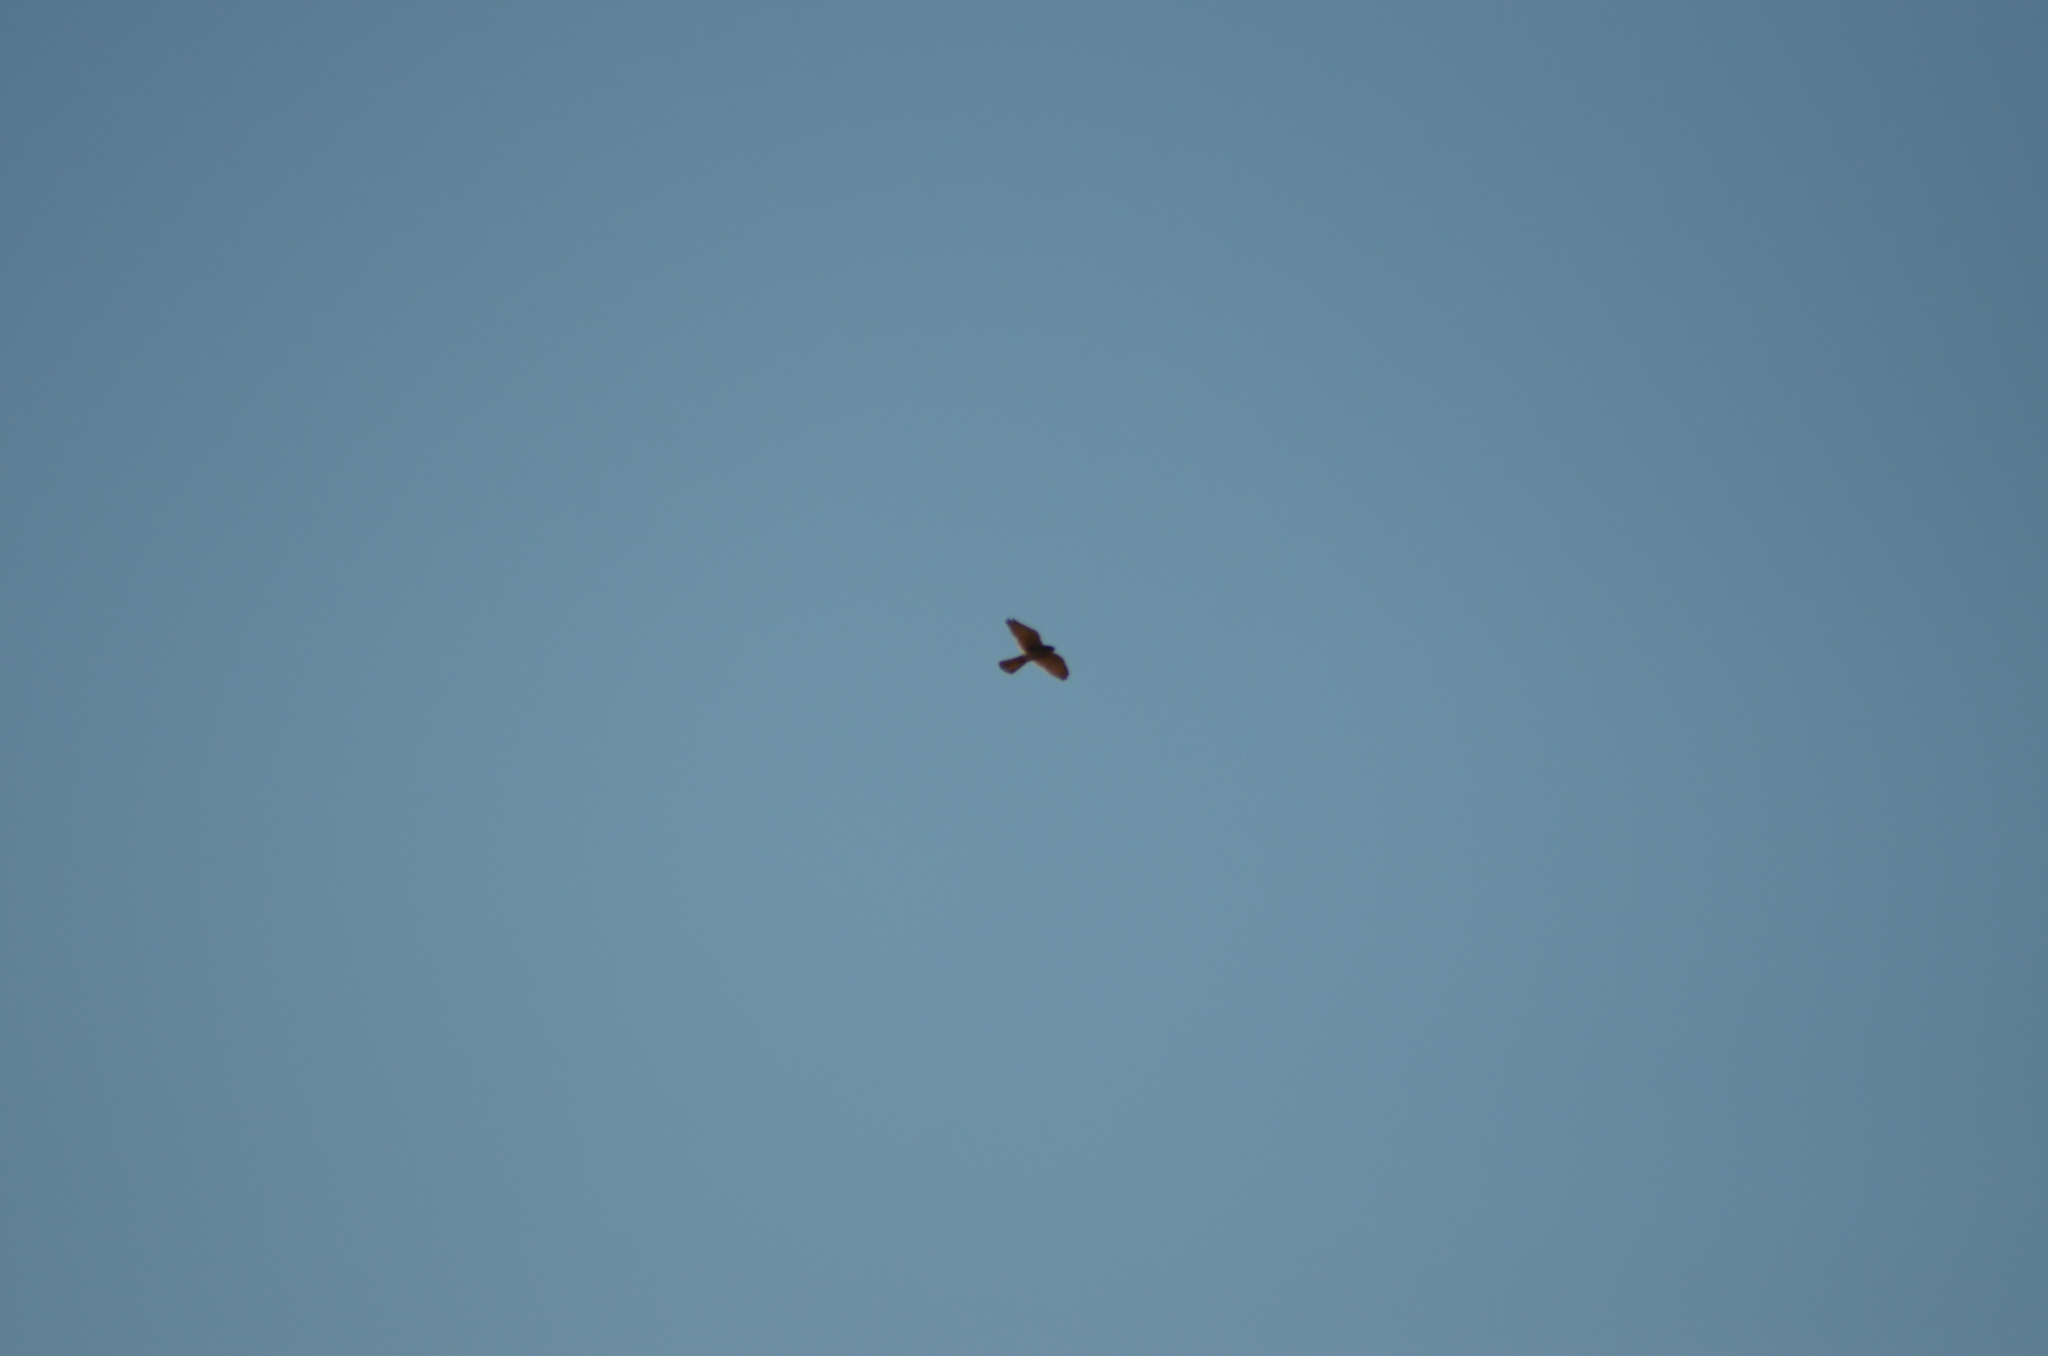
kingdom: Animalia
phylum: Chordata
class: Aves
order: Falconiformes
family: Falconidae
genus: Falco
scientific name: Falco tinnunculus
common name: Common kestrel
